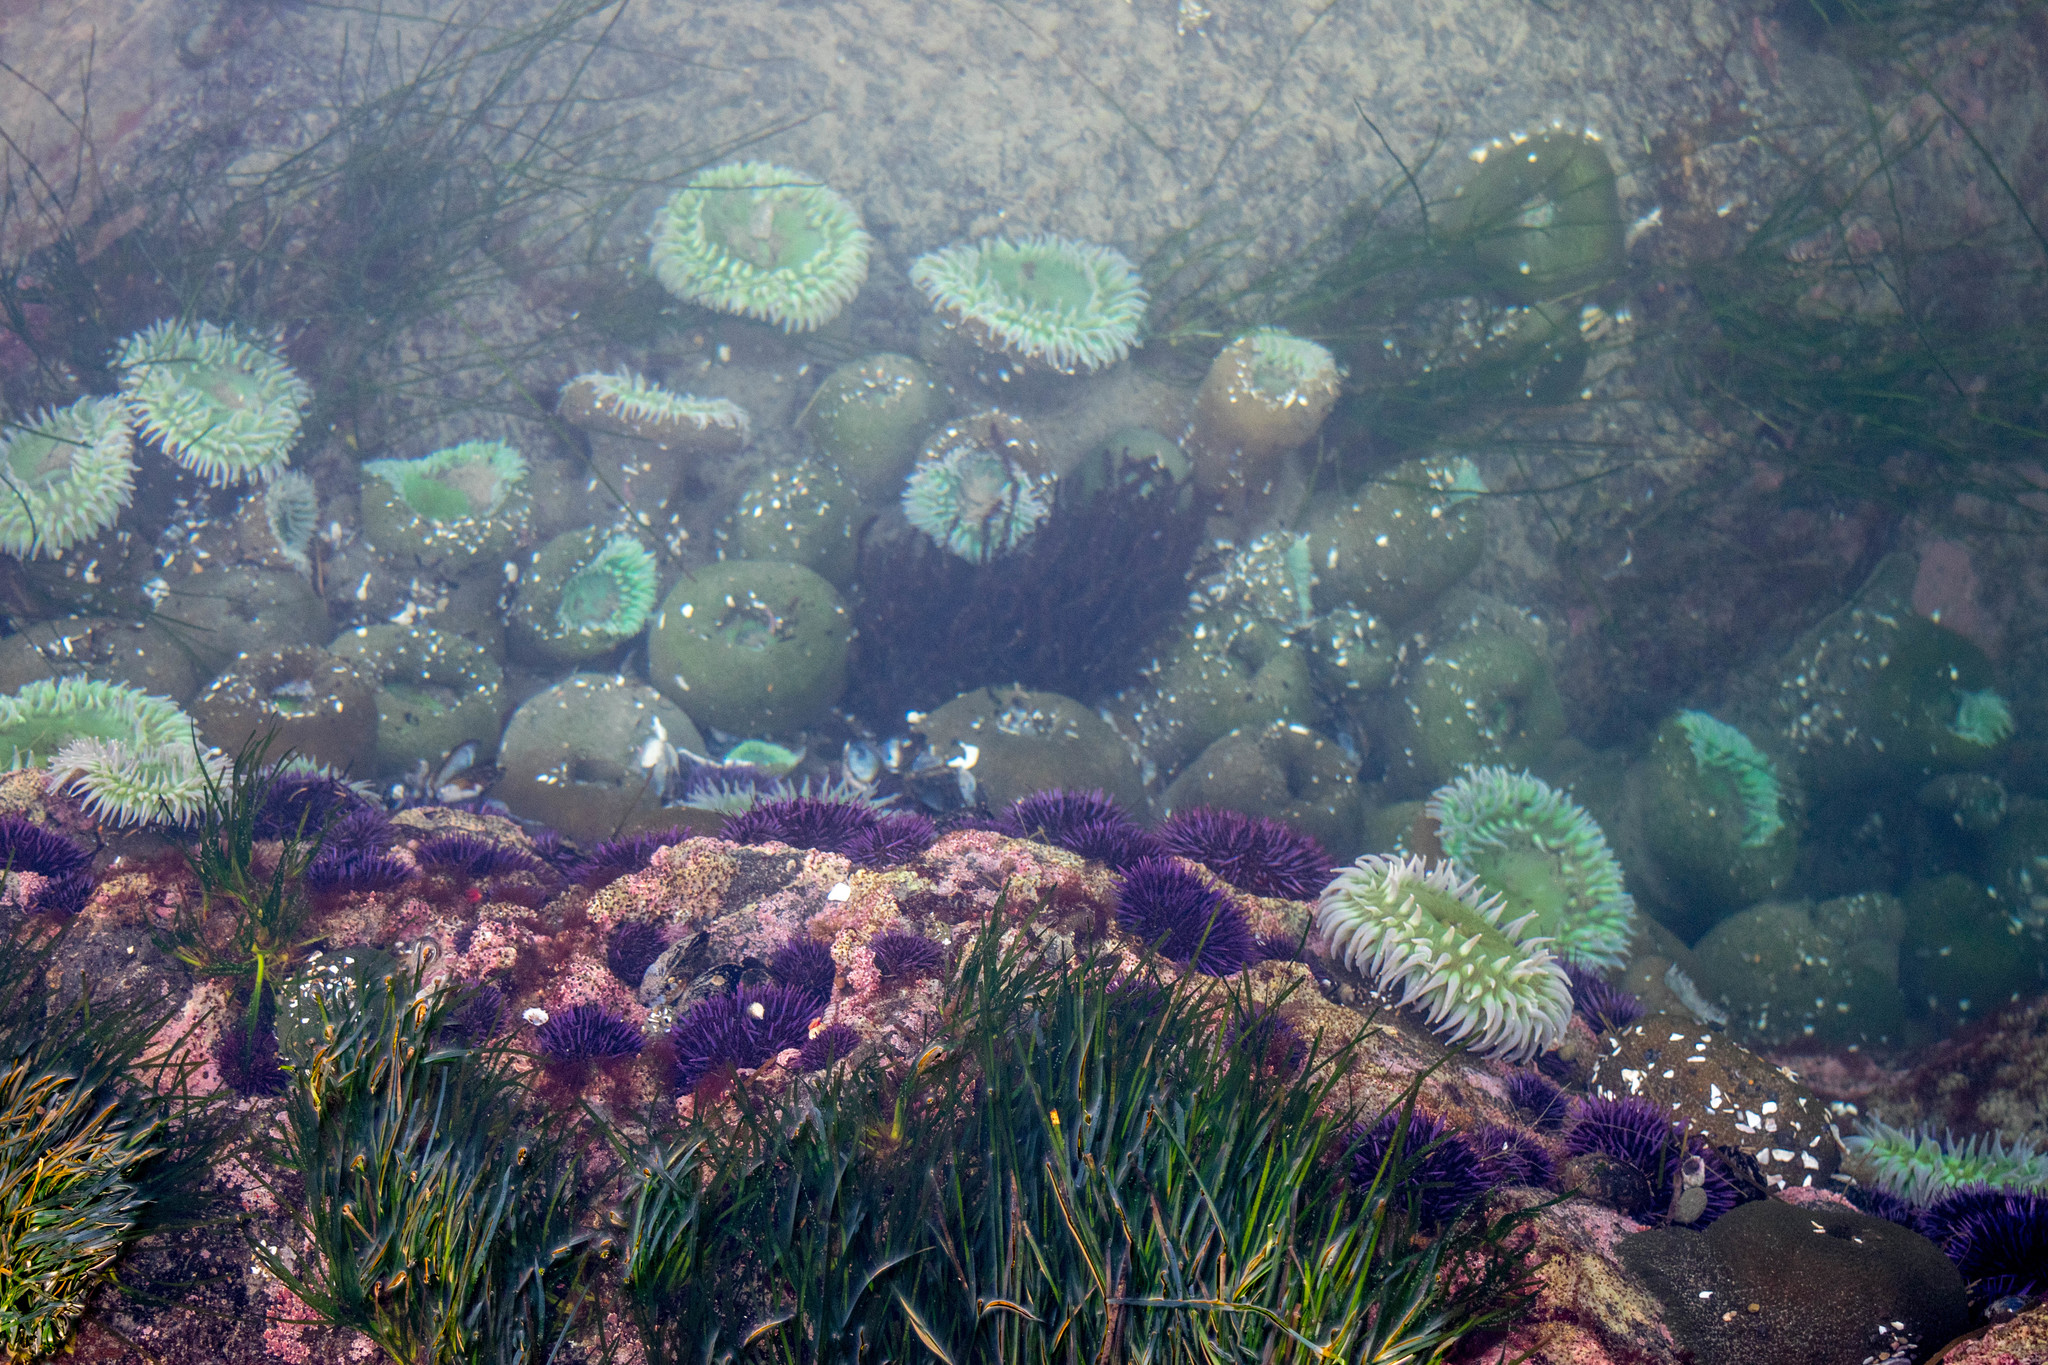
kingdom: Animalia
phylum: Cnidaria
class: Anthozoa
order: Actiniaria
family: Actiniidae
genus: Anthopleura
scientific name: Anthopleura xanthogrammica
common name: Giant green anemone
